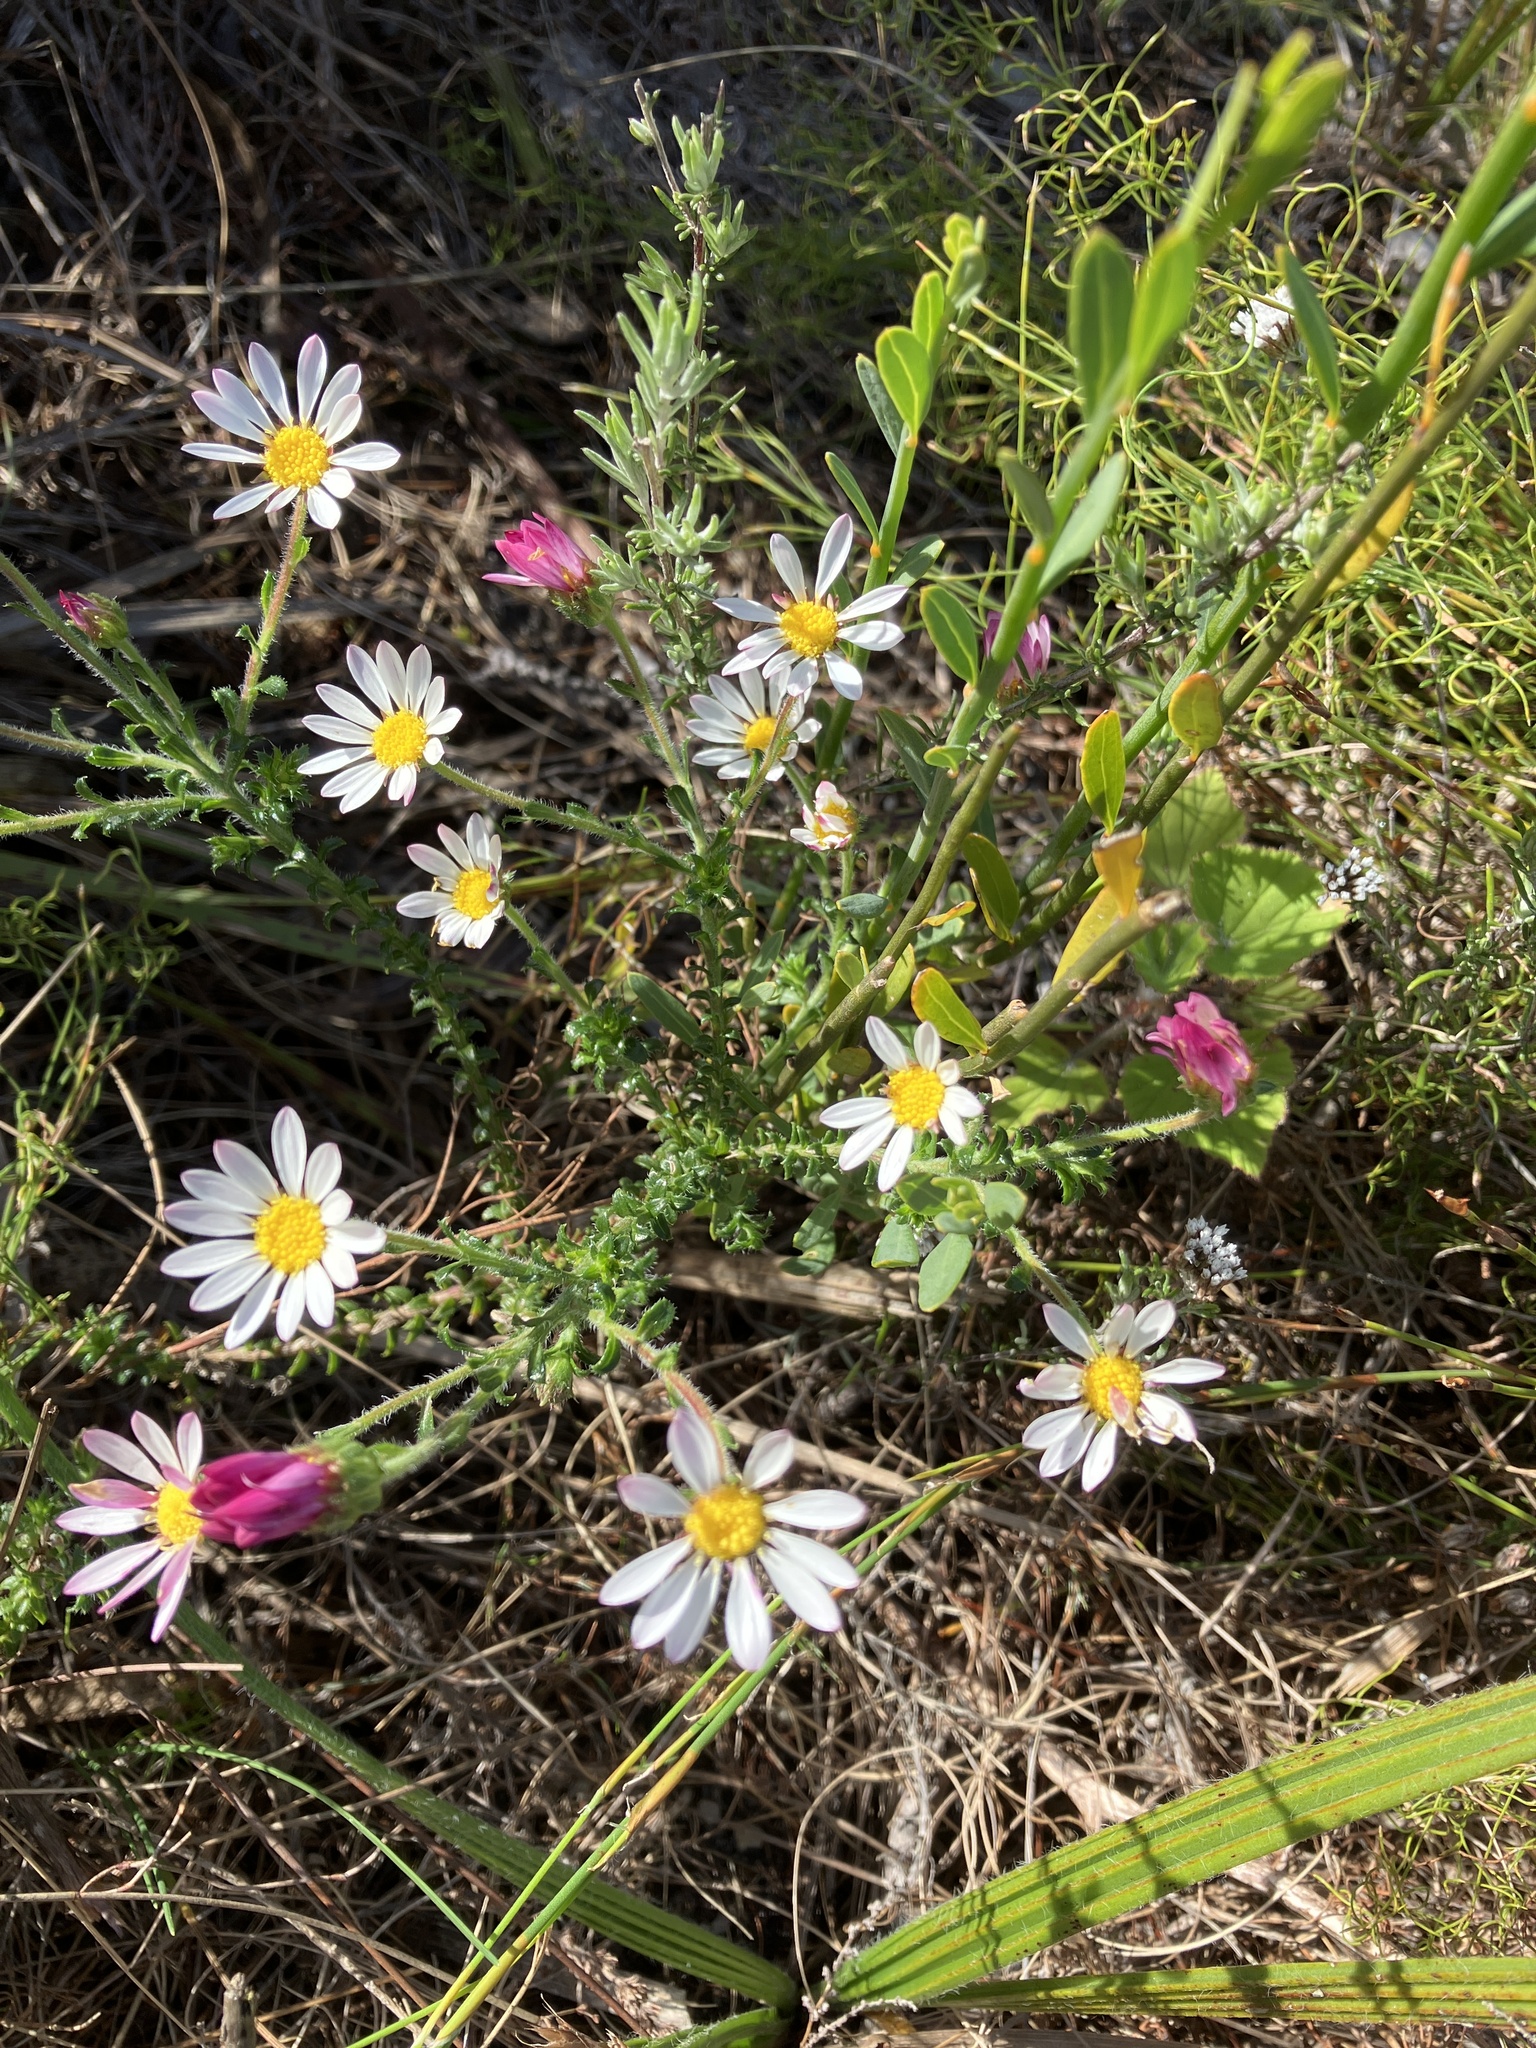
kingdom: Plantae
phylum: Tracheophyta
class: Magnoliopsida
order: Asterales
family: Asteraceae
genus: Polyarrhena
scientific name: Polyarrhena reflexa
